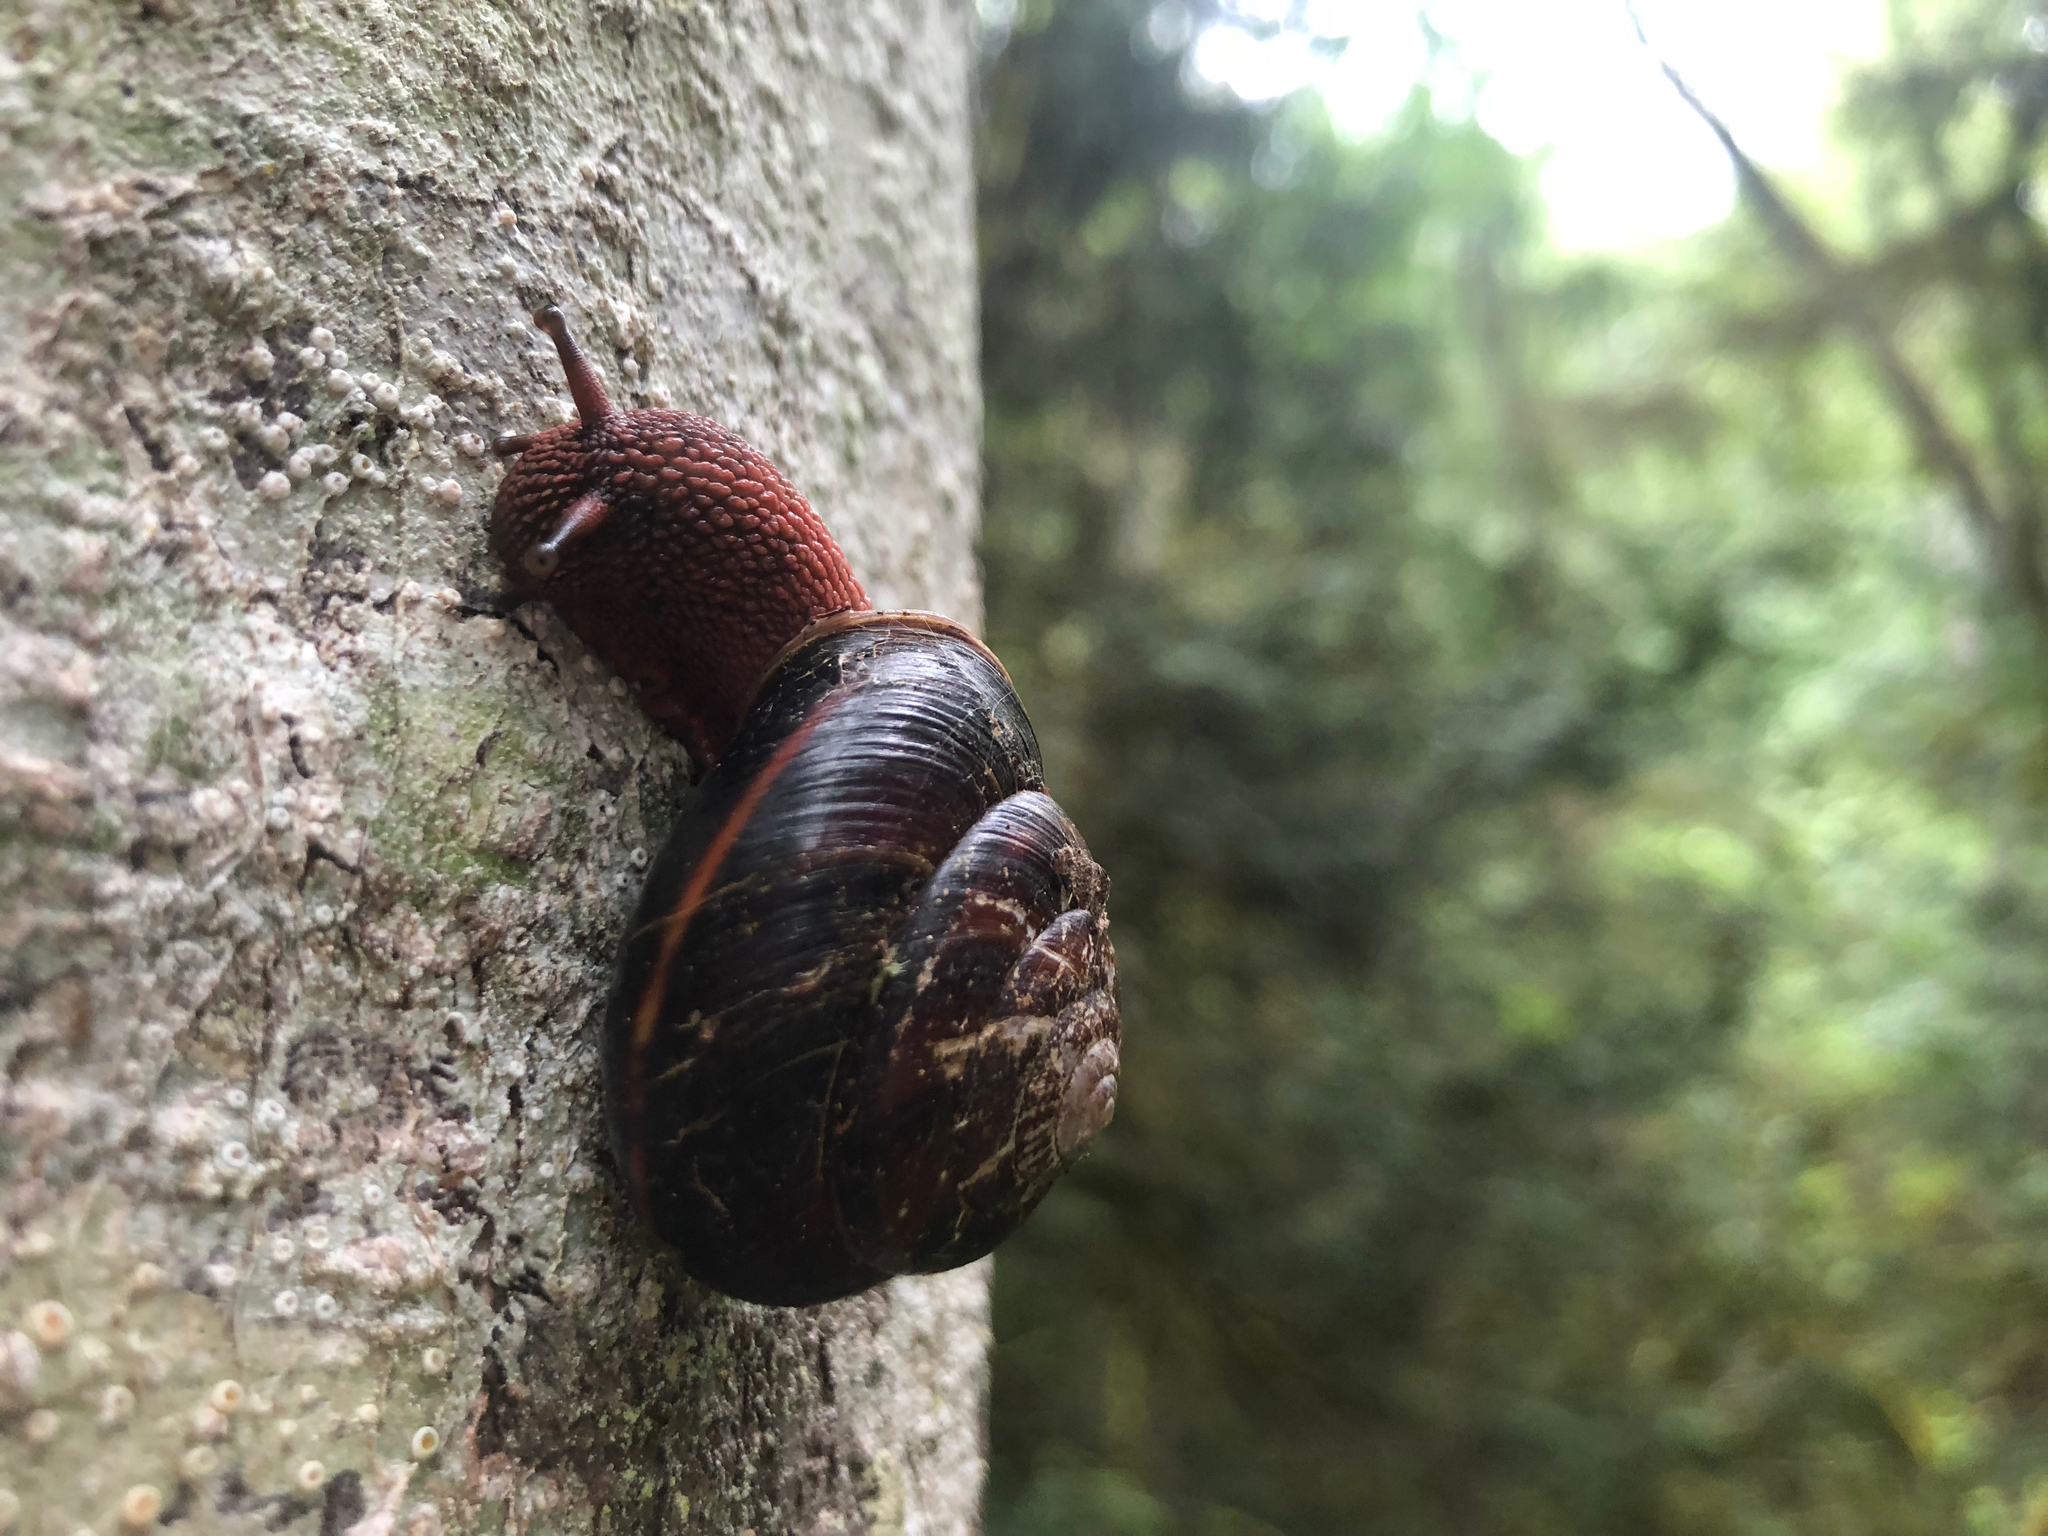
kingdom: Animalia
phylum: Mollusca
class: Gastropoda
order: Stylommatophora
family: Xanthonychidae
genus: Monadenia
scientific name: Monadenia fidelis
